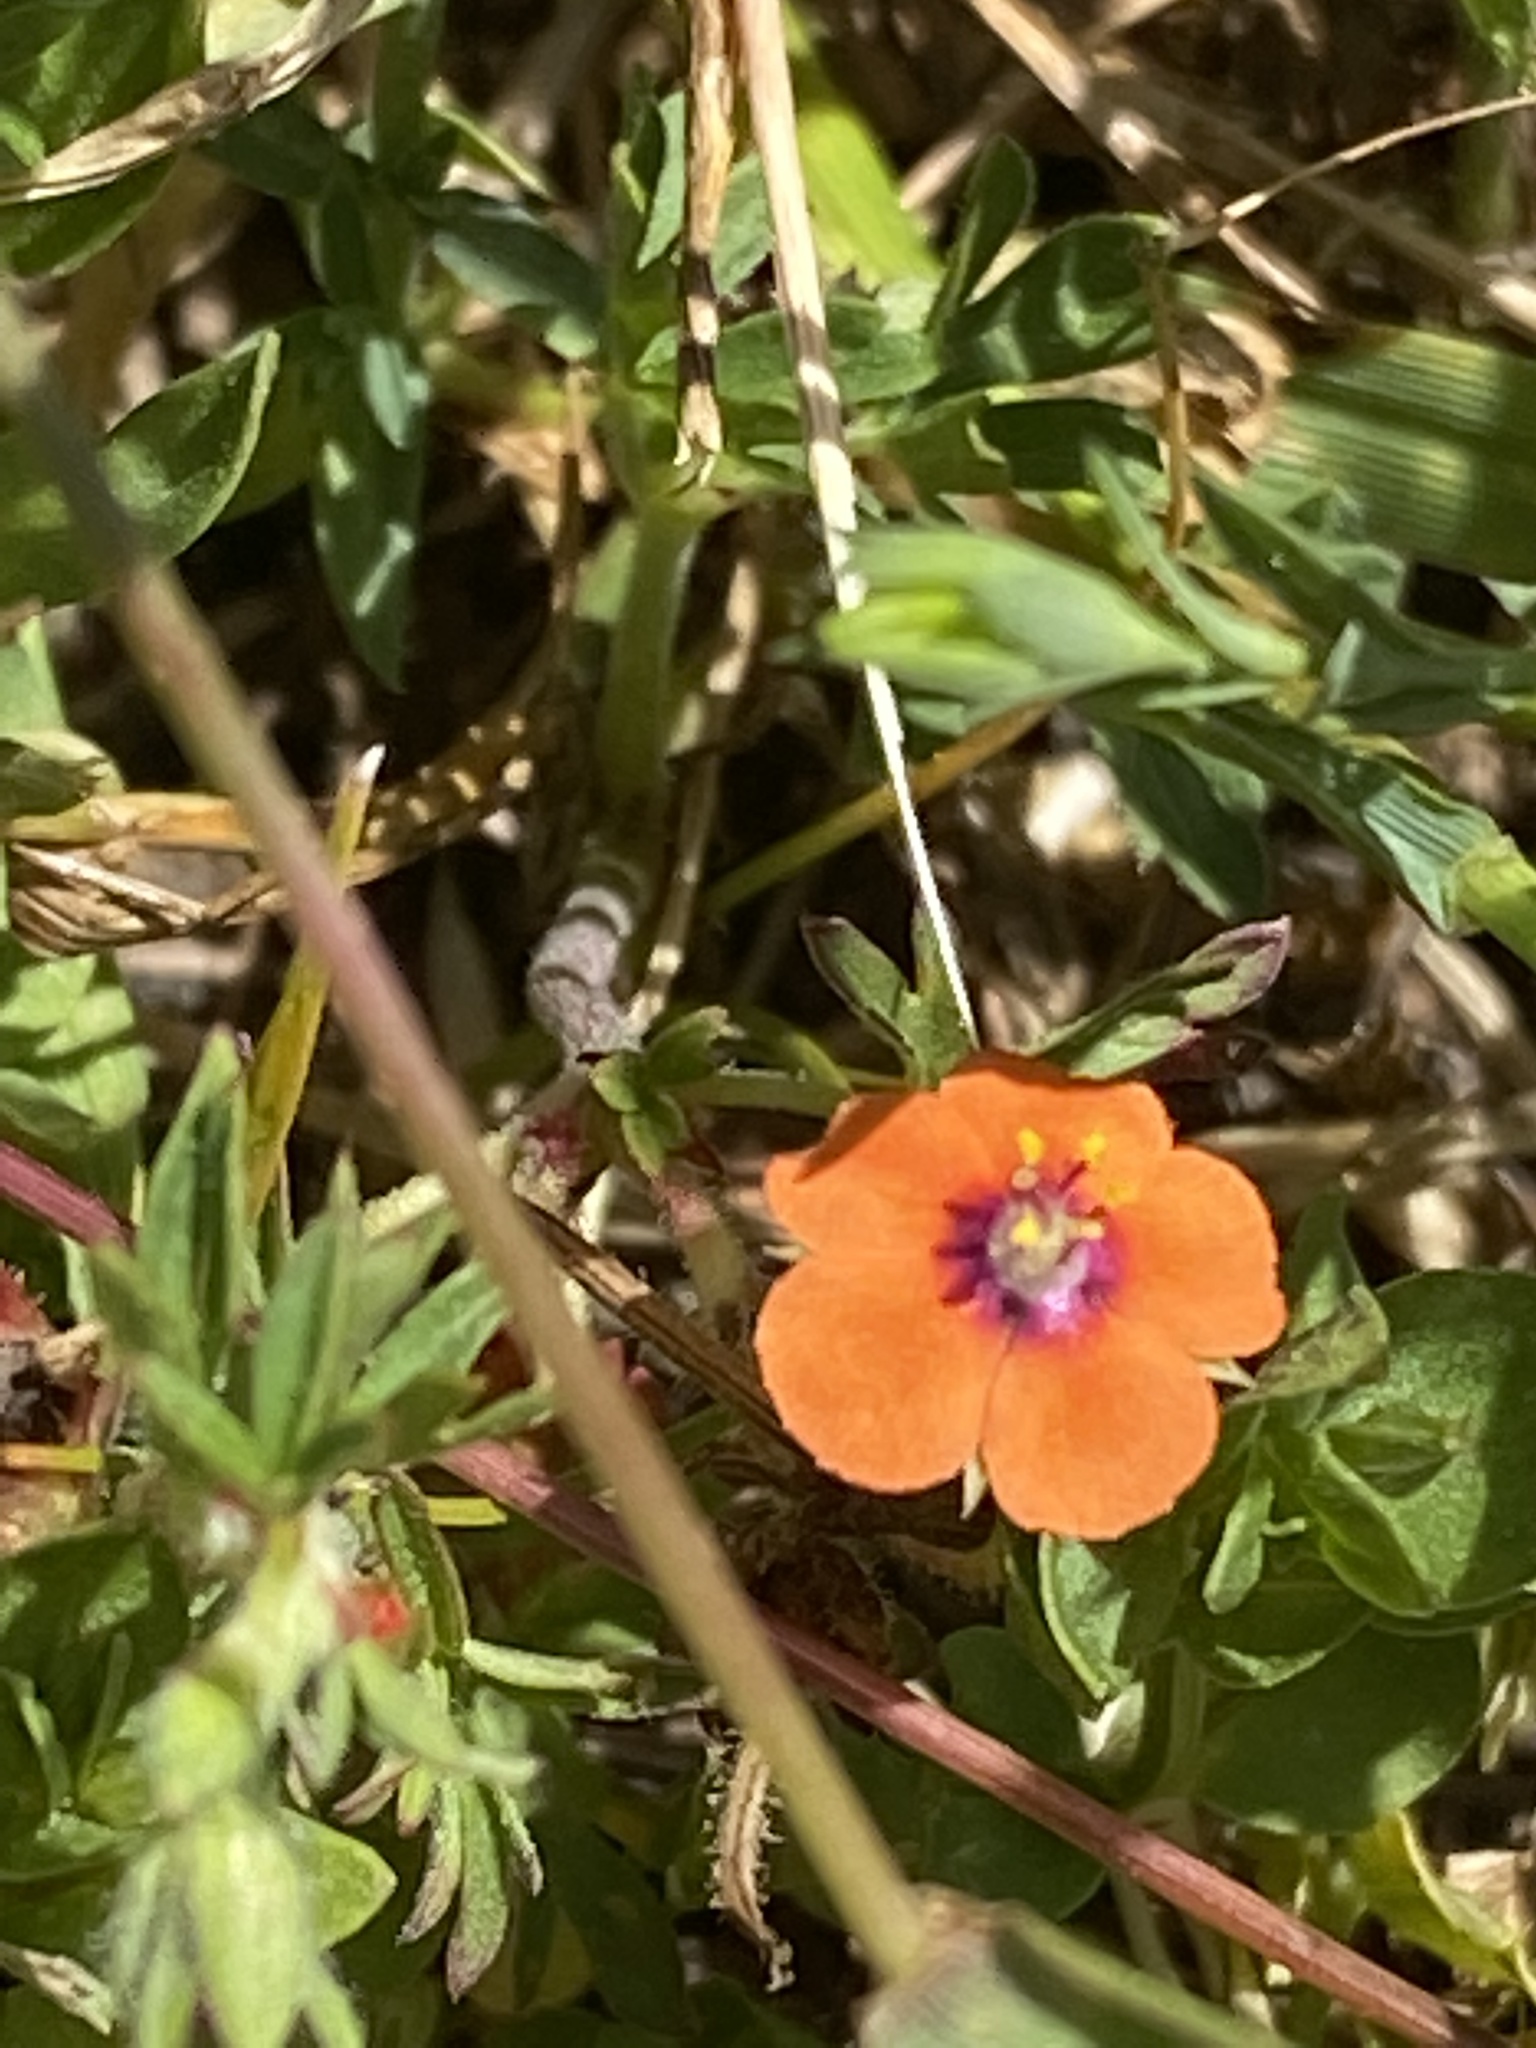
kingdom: Plantae
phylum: Tracheophyta
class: Magnoliopsida
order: Ericales
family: Primulaceae
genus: Lysimachia
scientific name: Lysimachia arvensis
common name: Scarlet pimpernel
